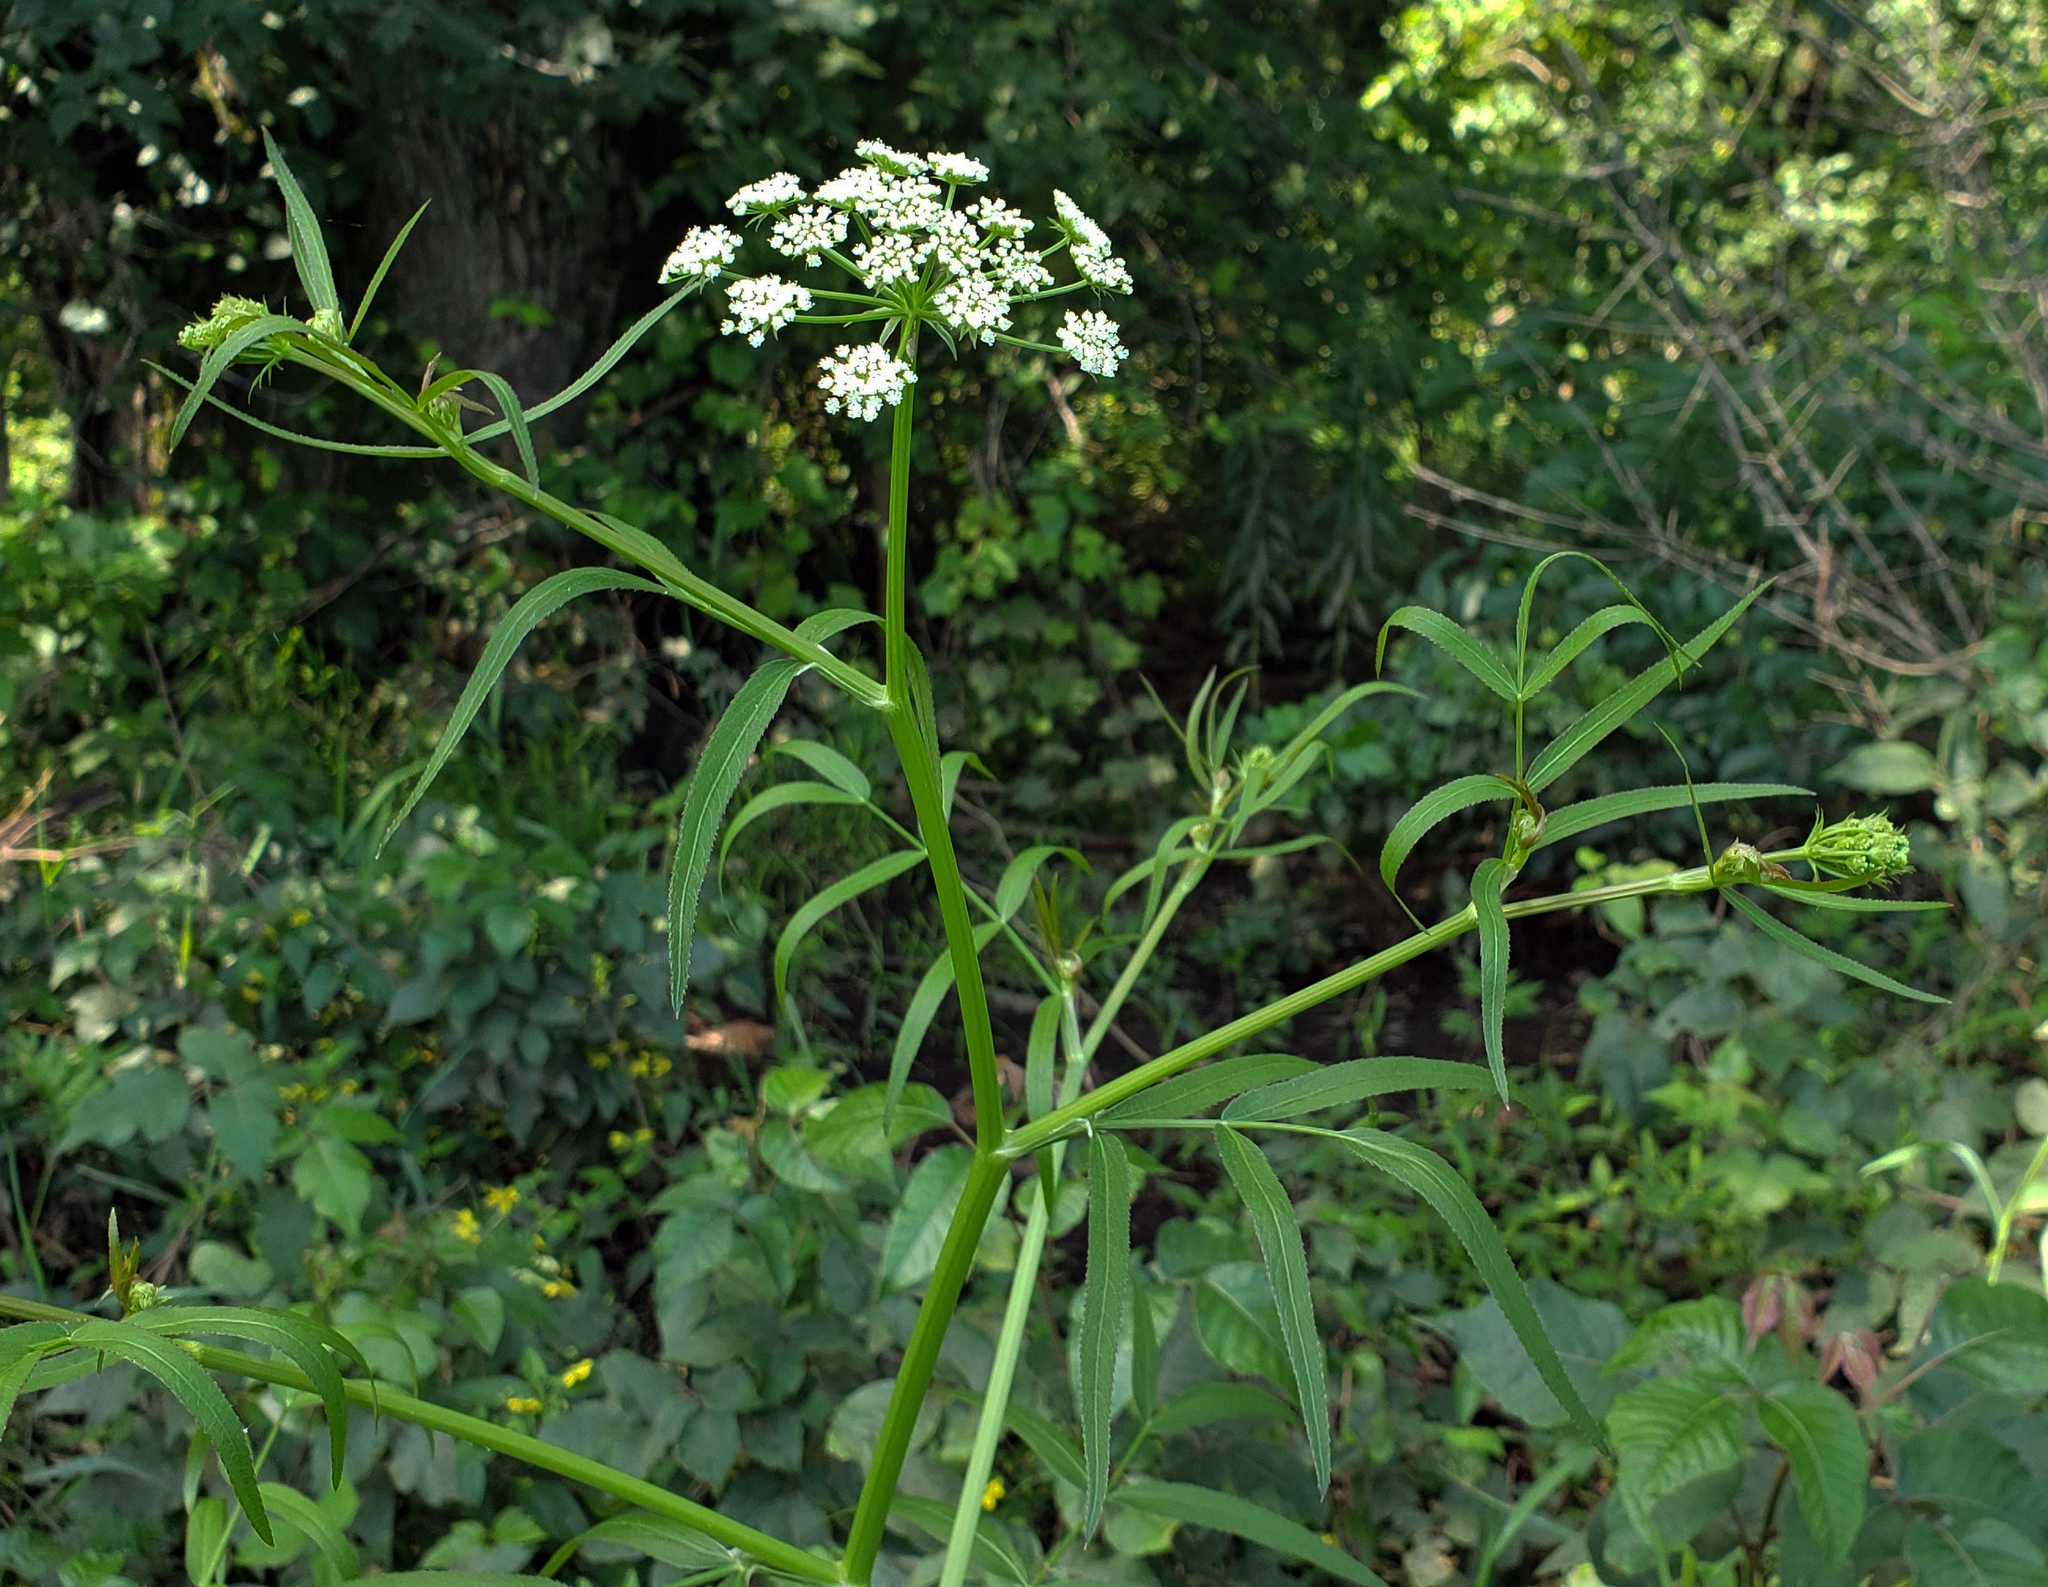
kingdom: Plantae
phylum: Tracheophyta
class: Magnoliopsida
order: Apiales
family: Apiaceae
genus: Sium
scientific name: Sium suave
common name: Hemlock water-parsnip
